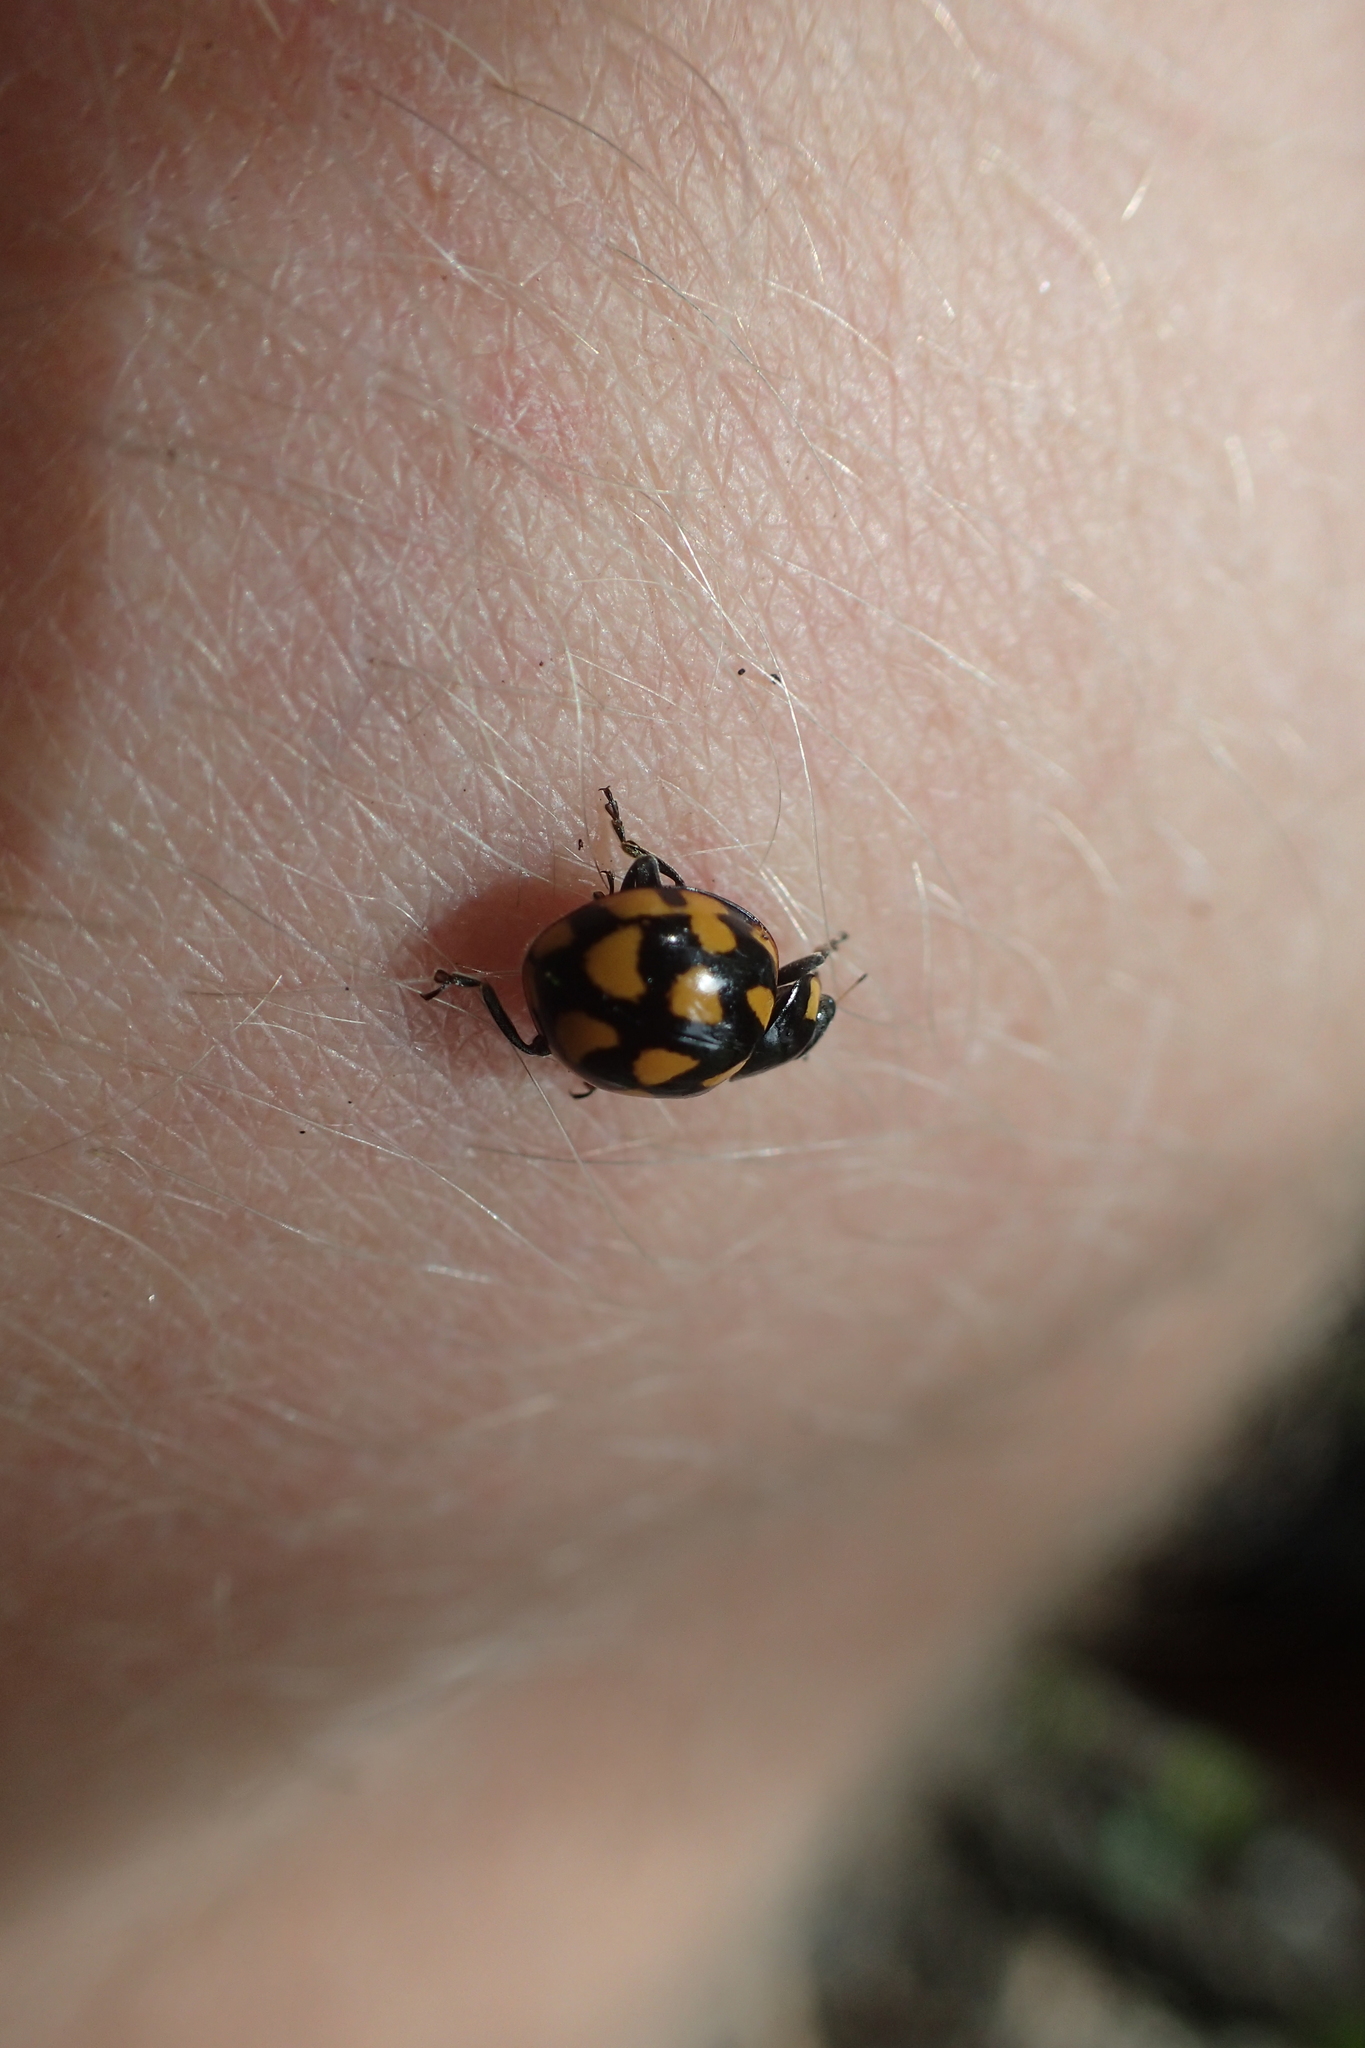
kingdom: Animalia
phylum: Arthropoda
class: Insecta
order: Coleoptera
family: Coccinellidae
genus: Coccinella
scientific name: Coccinella leonina
